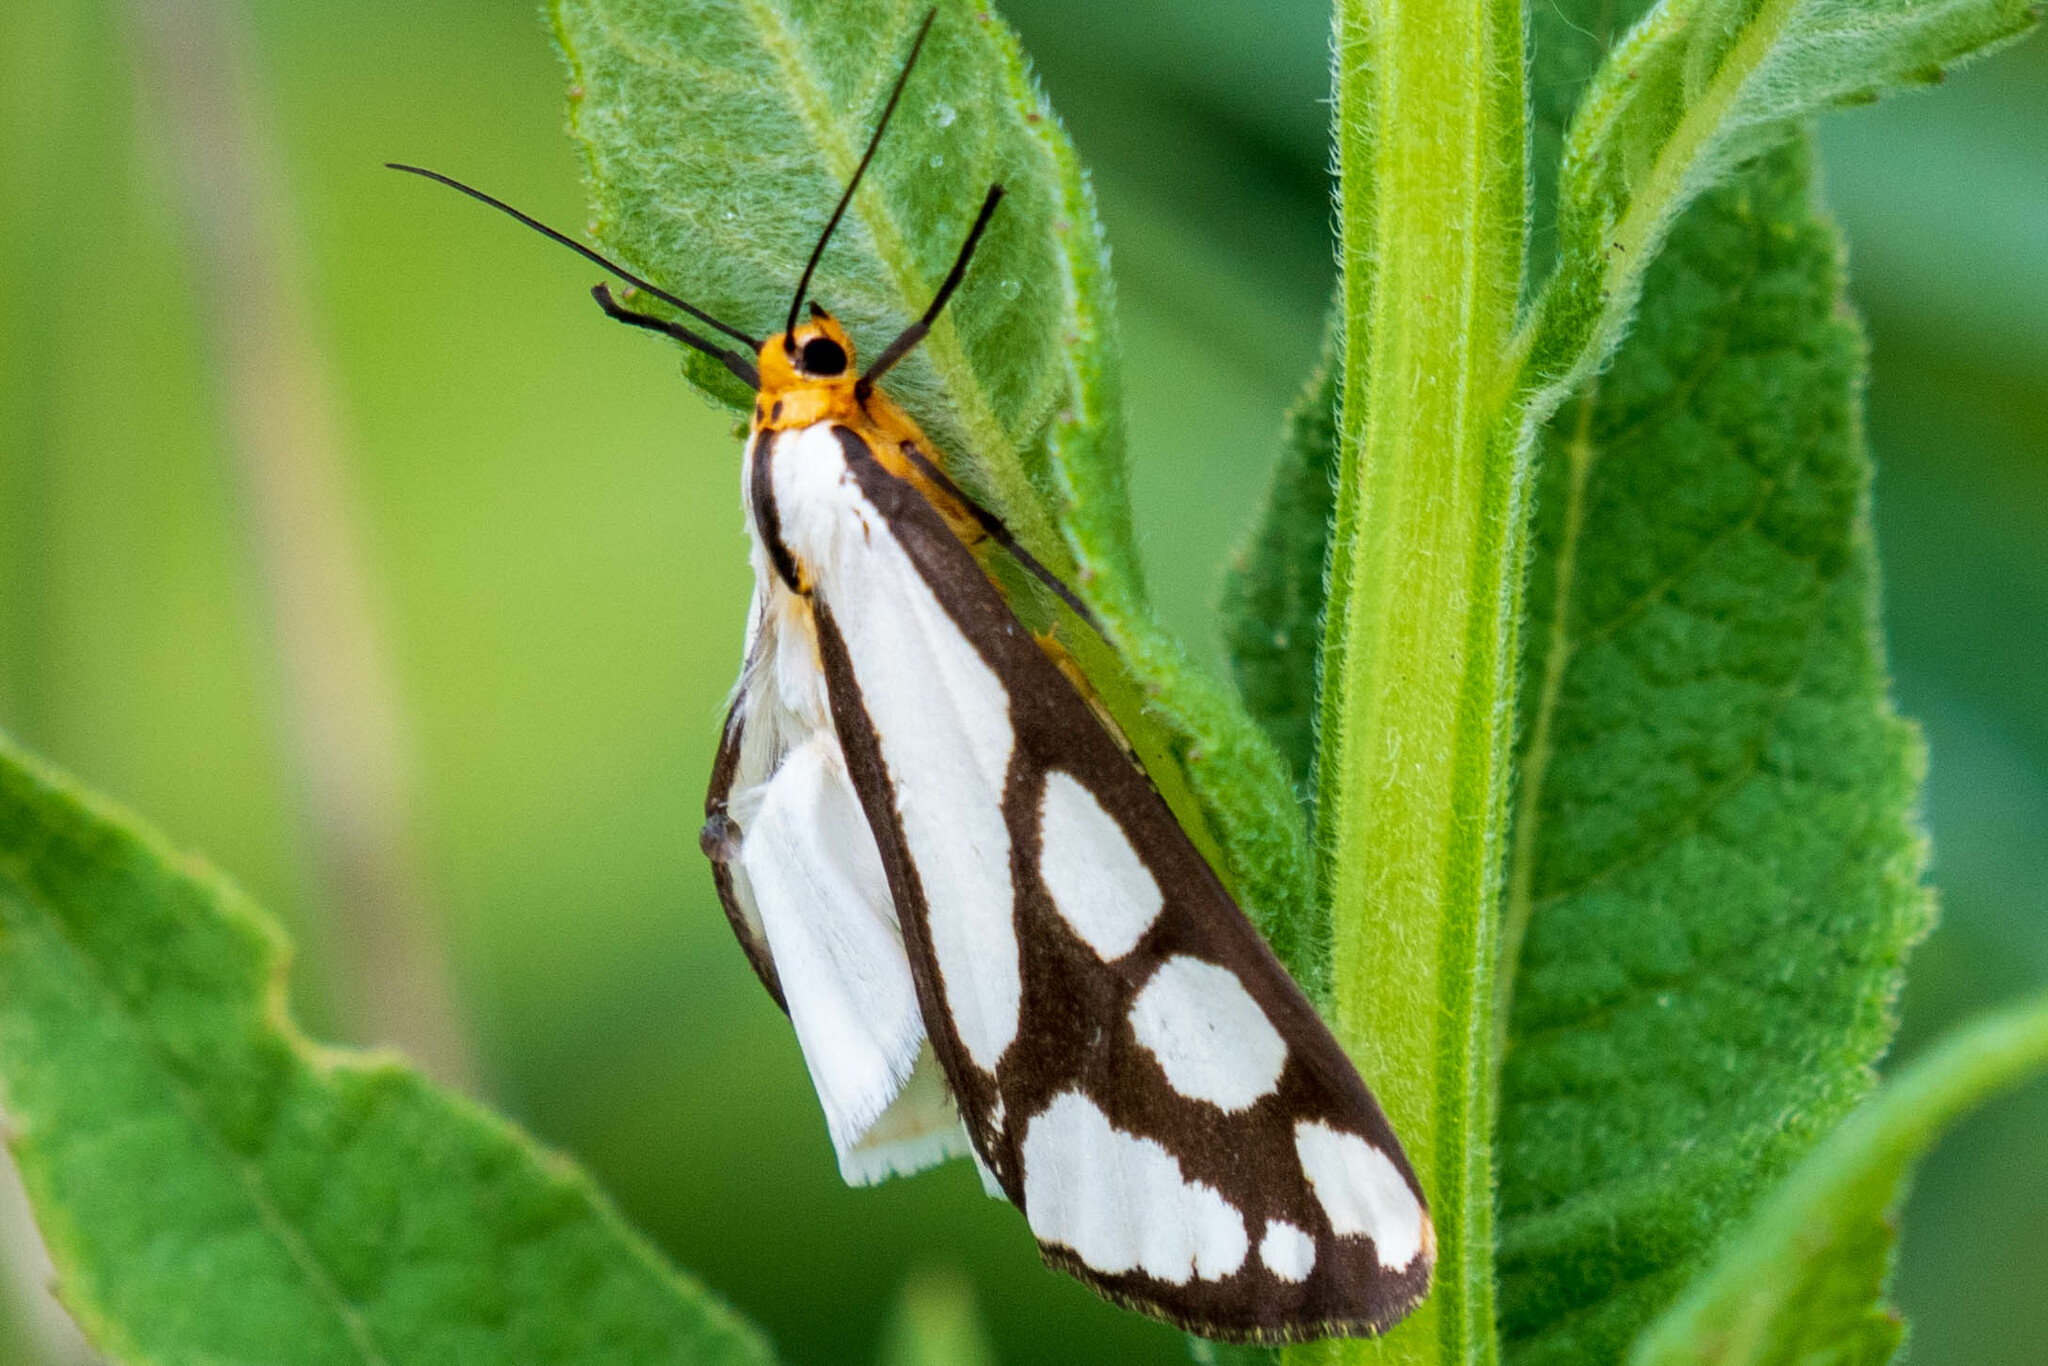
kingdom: Animalia
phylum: Arthropoda
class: Insecta
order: Lepidoptera
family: Erebidae
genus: Haploa
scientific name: Haploa reversa
